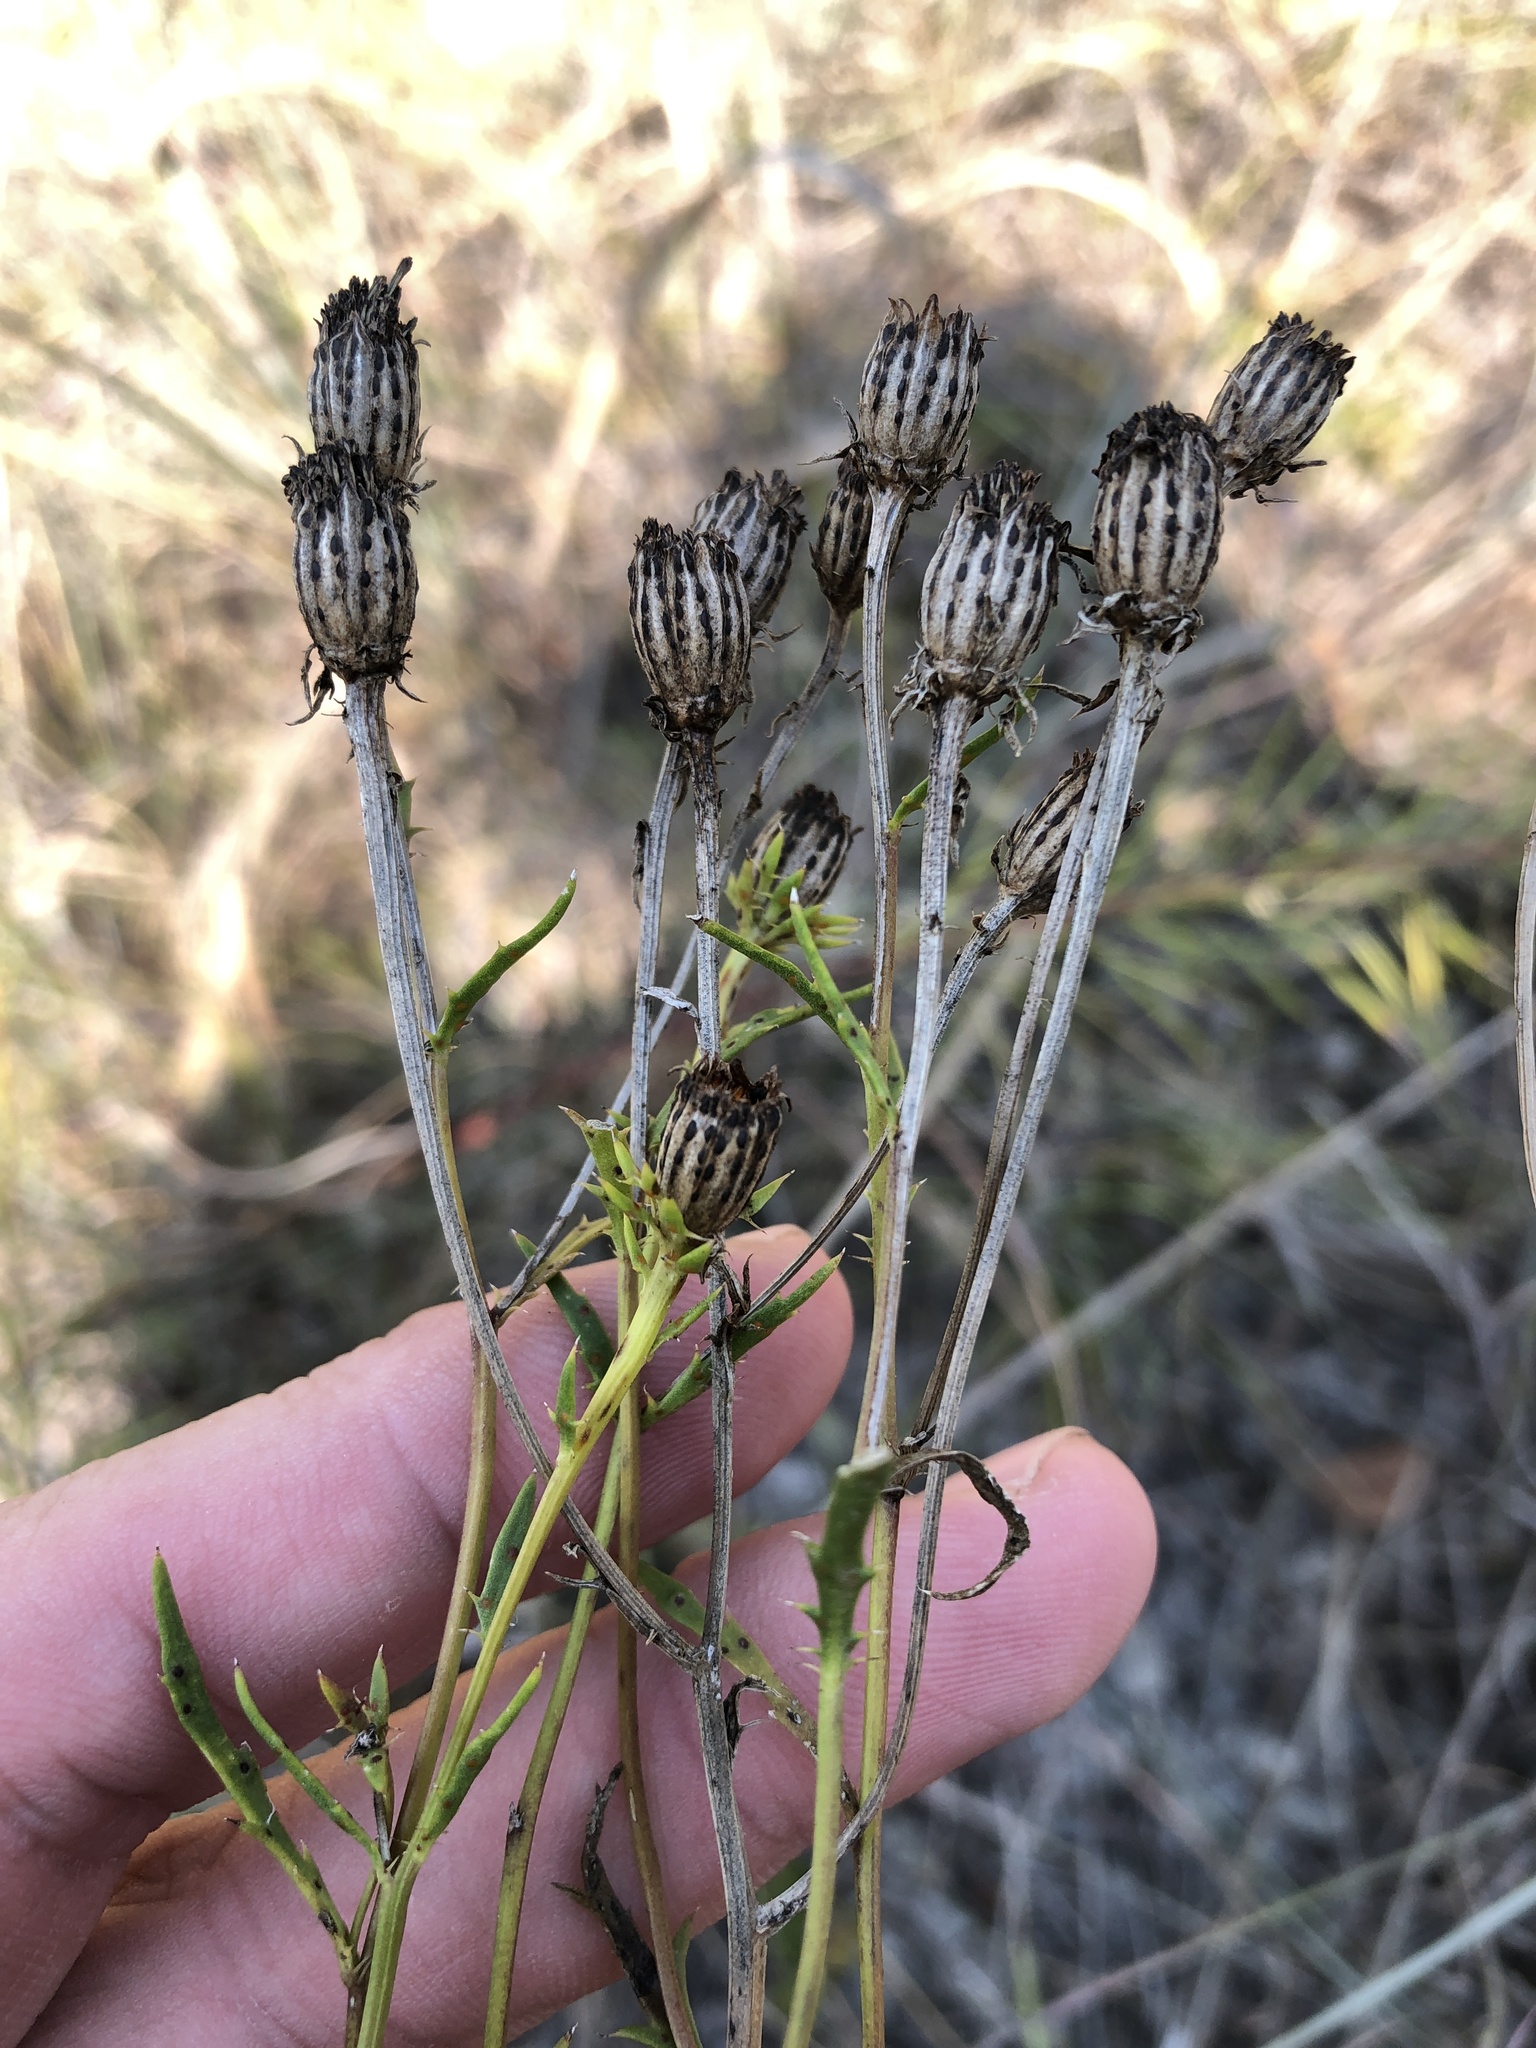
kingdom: Plantae
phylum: Tracheophyta
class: Magnoliopsida
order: Asterales
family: Asteraceae
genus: Dysodiopsis
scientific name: Dysodiopsis tagetoides
